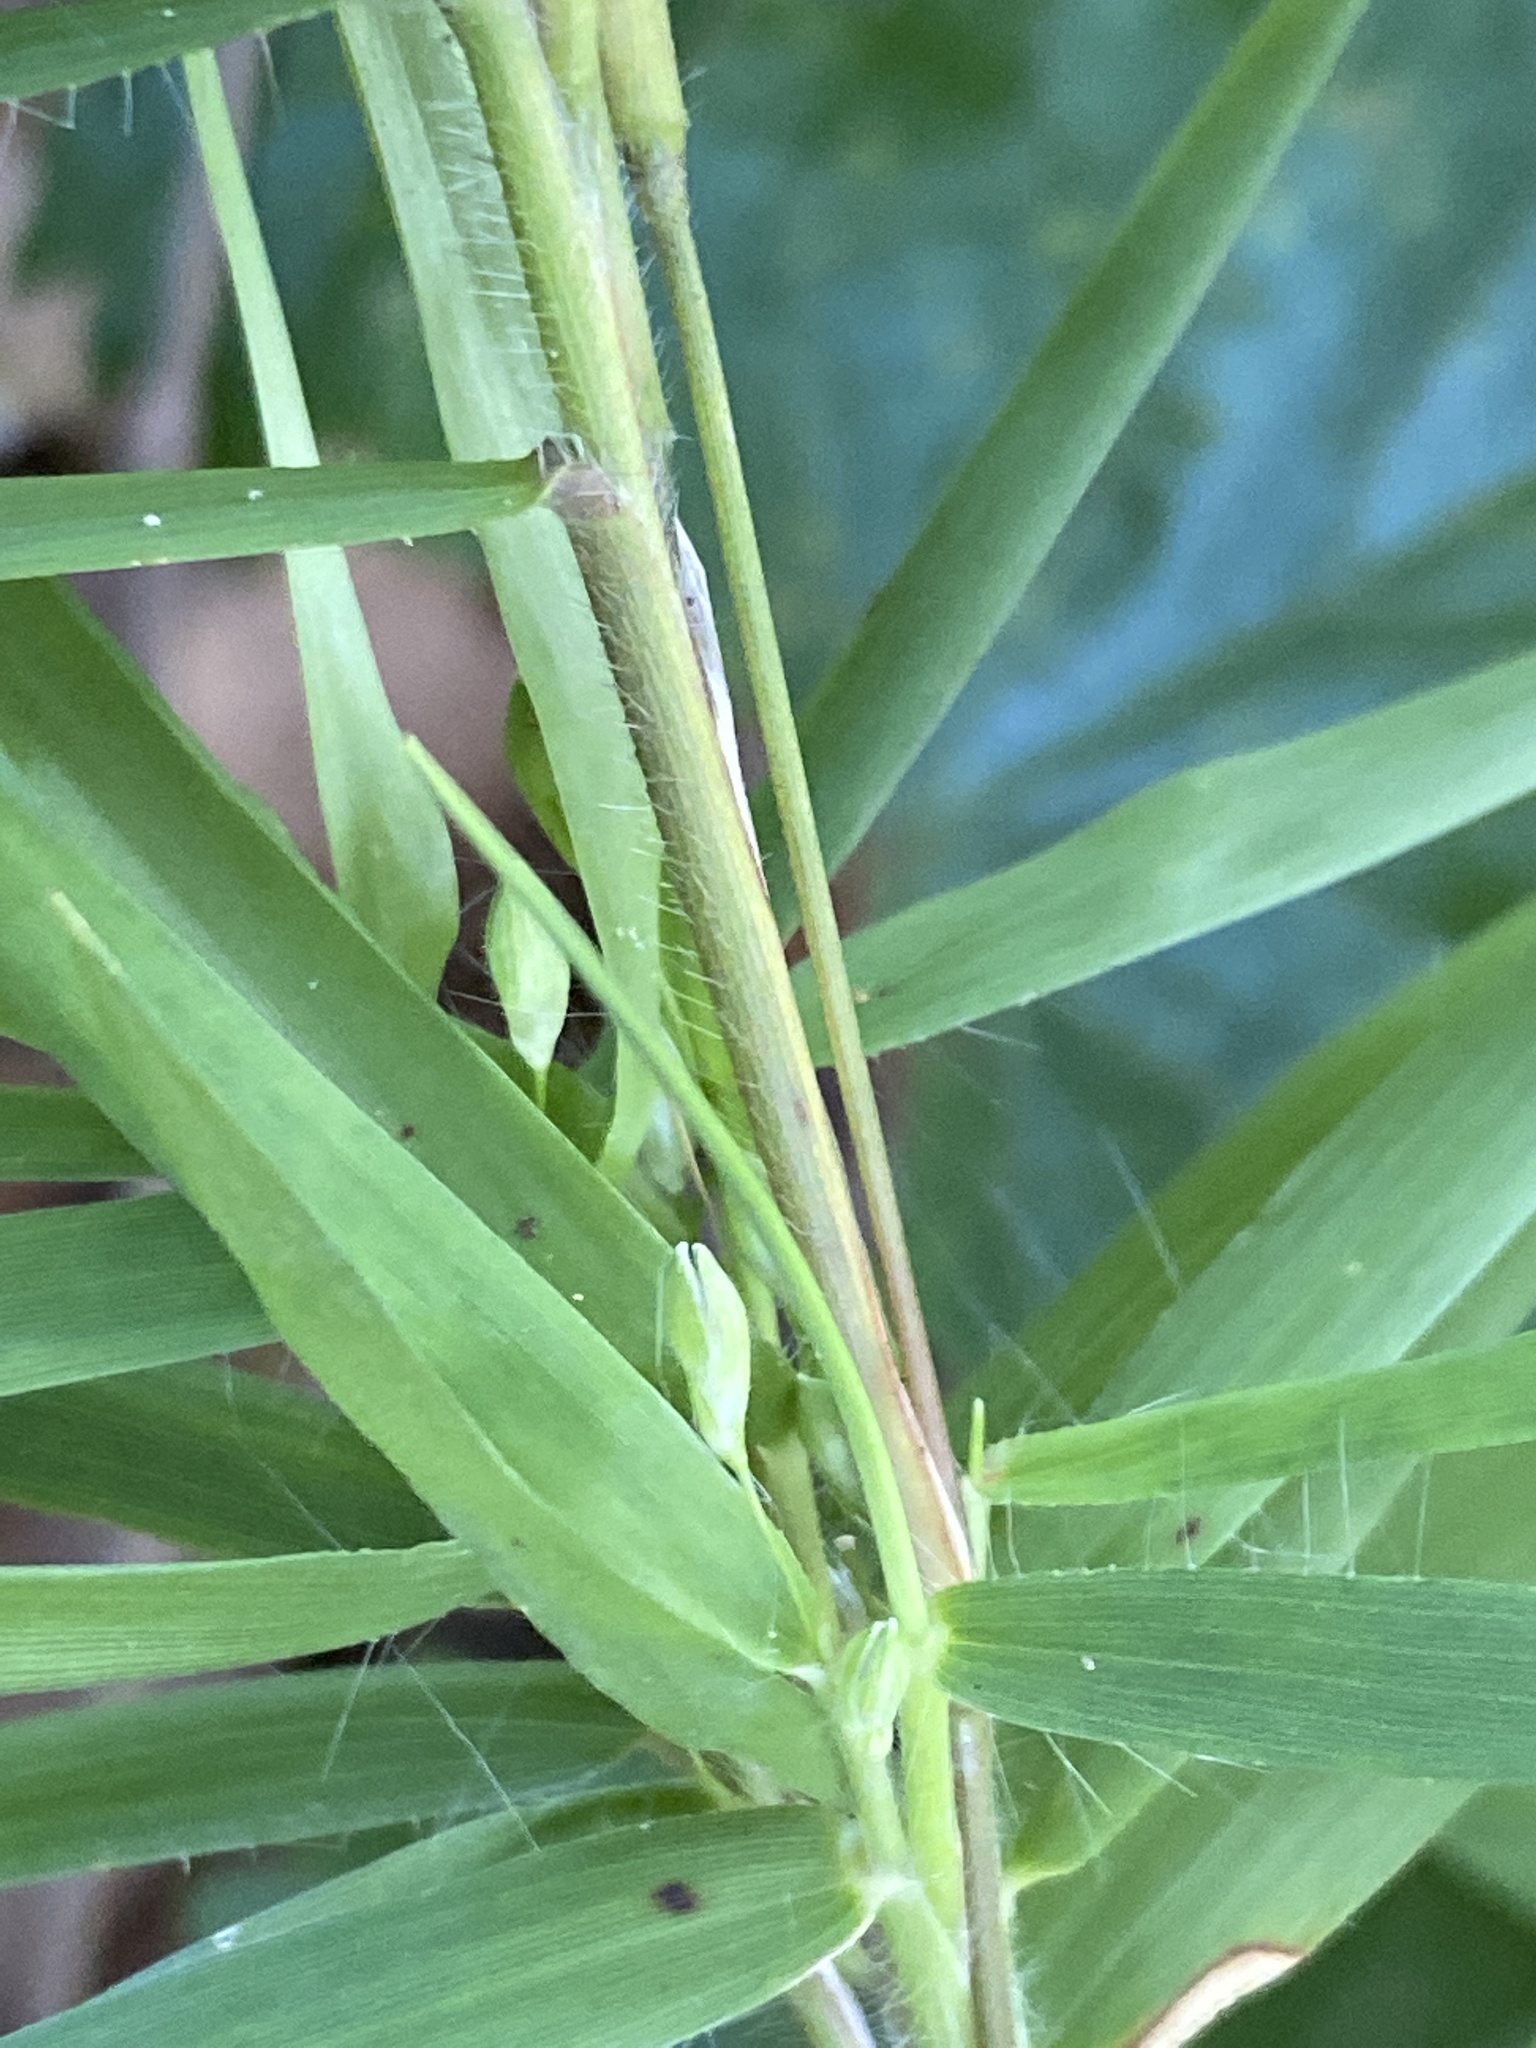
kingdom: Plantae
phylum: Tracheophyta
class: Liliopsida
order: Poales
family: Poaceae
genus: Dichanthelium
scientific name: Dichanthelium oligosanthes
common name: Few-anther obscuregrass
